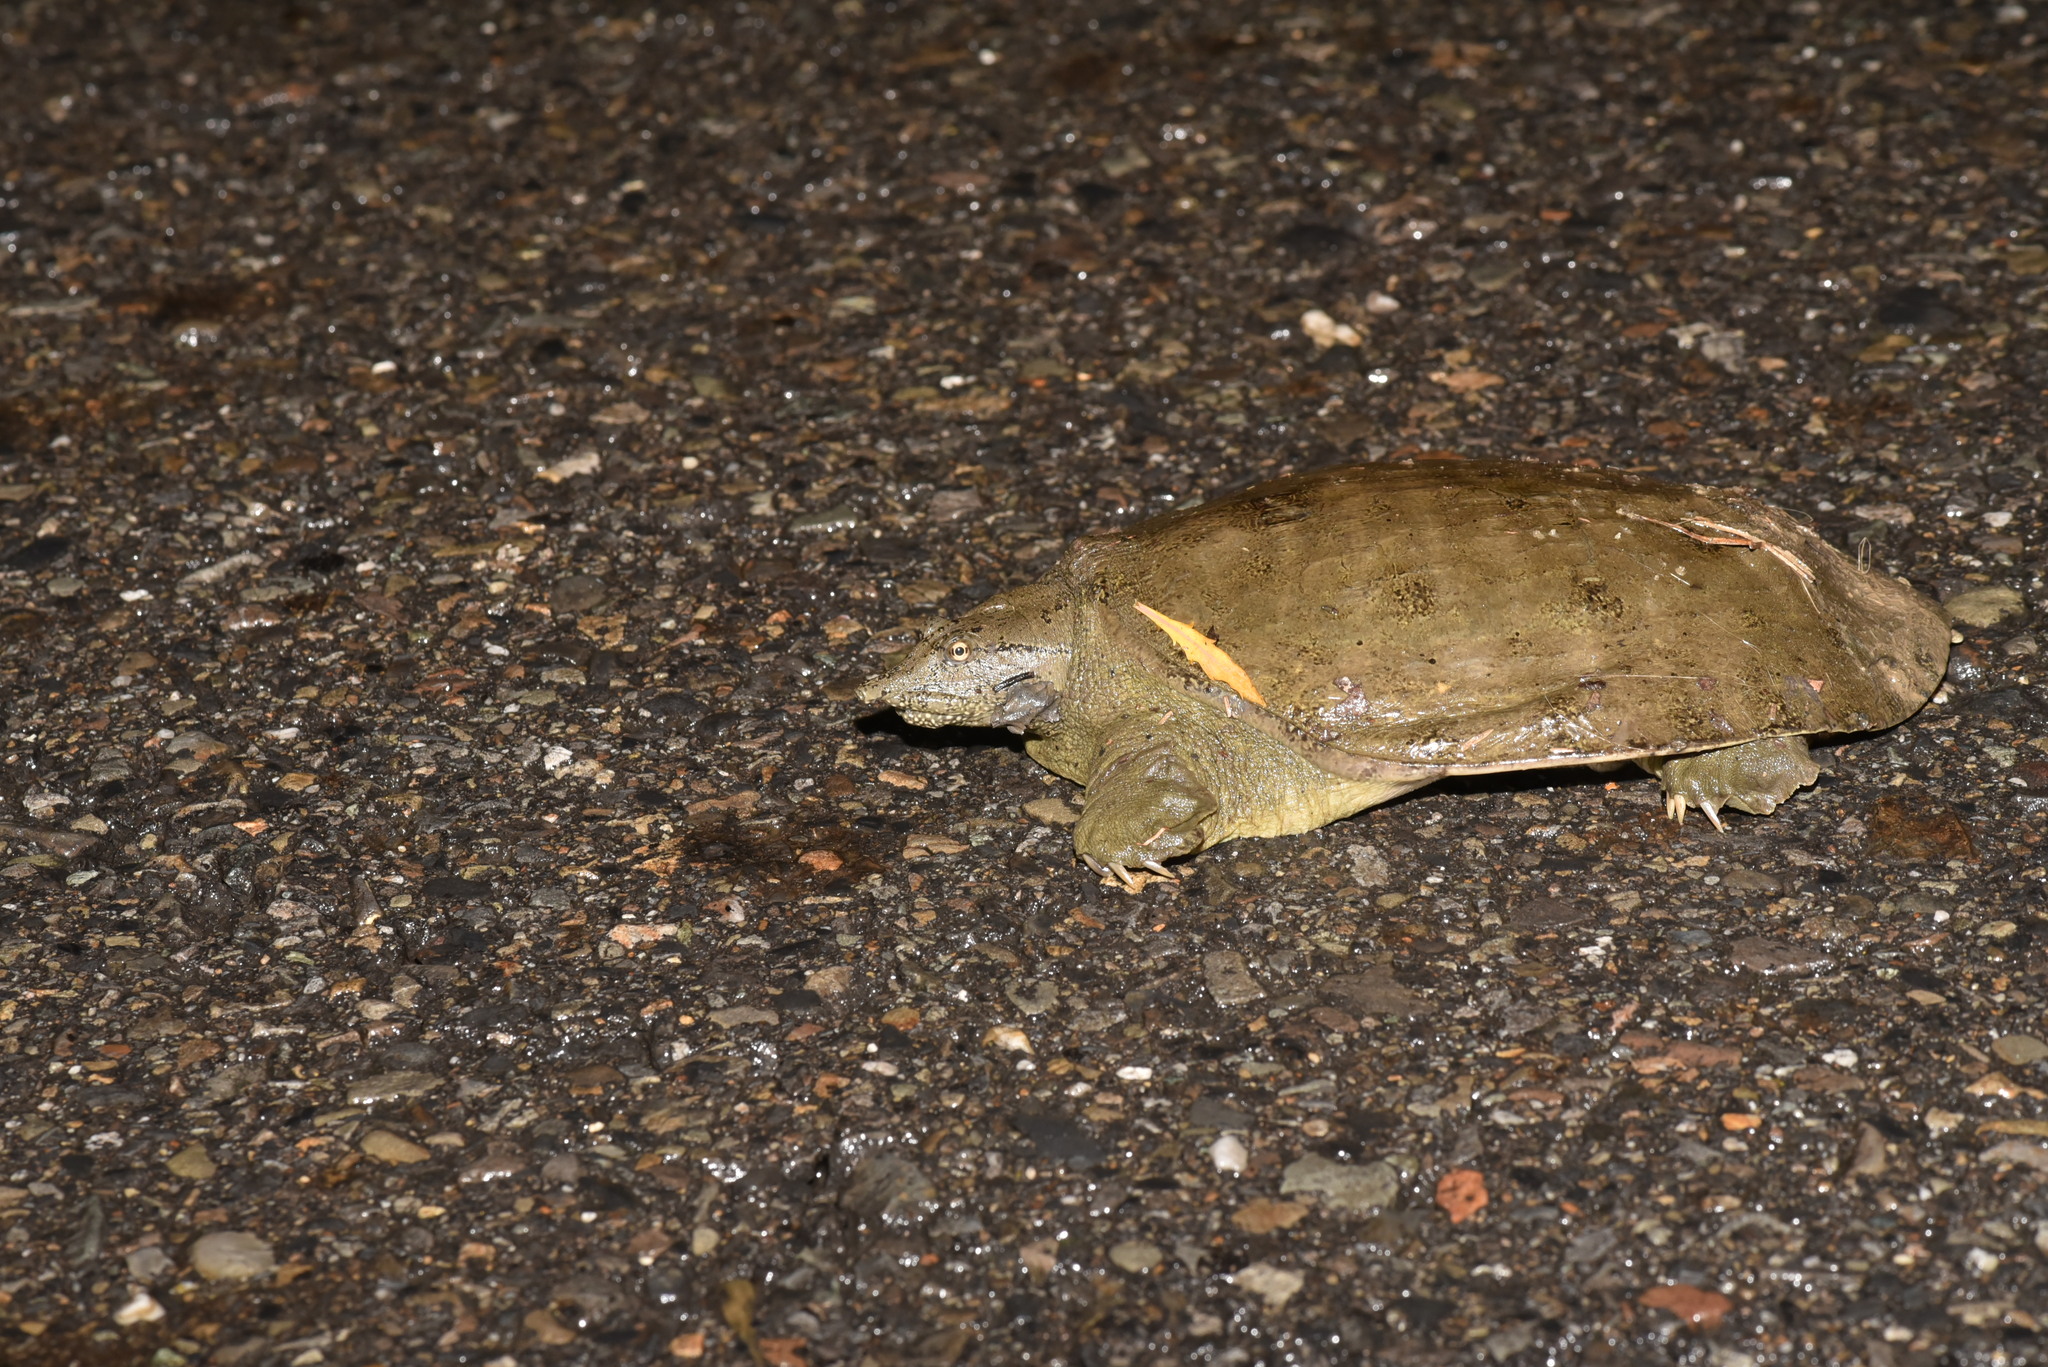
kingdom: Animalia
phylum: Chordata
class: Testudines
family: Trionychidae
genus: Pelodiscus
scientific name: Pelodiscus sinensis
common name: Chinese softshell turtle
